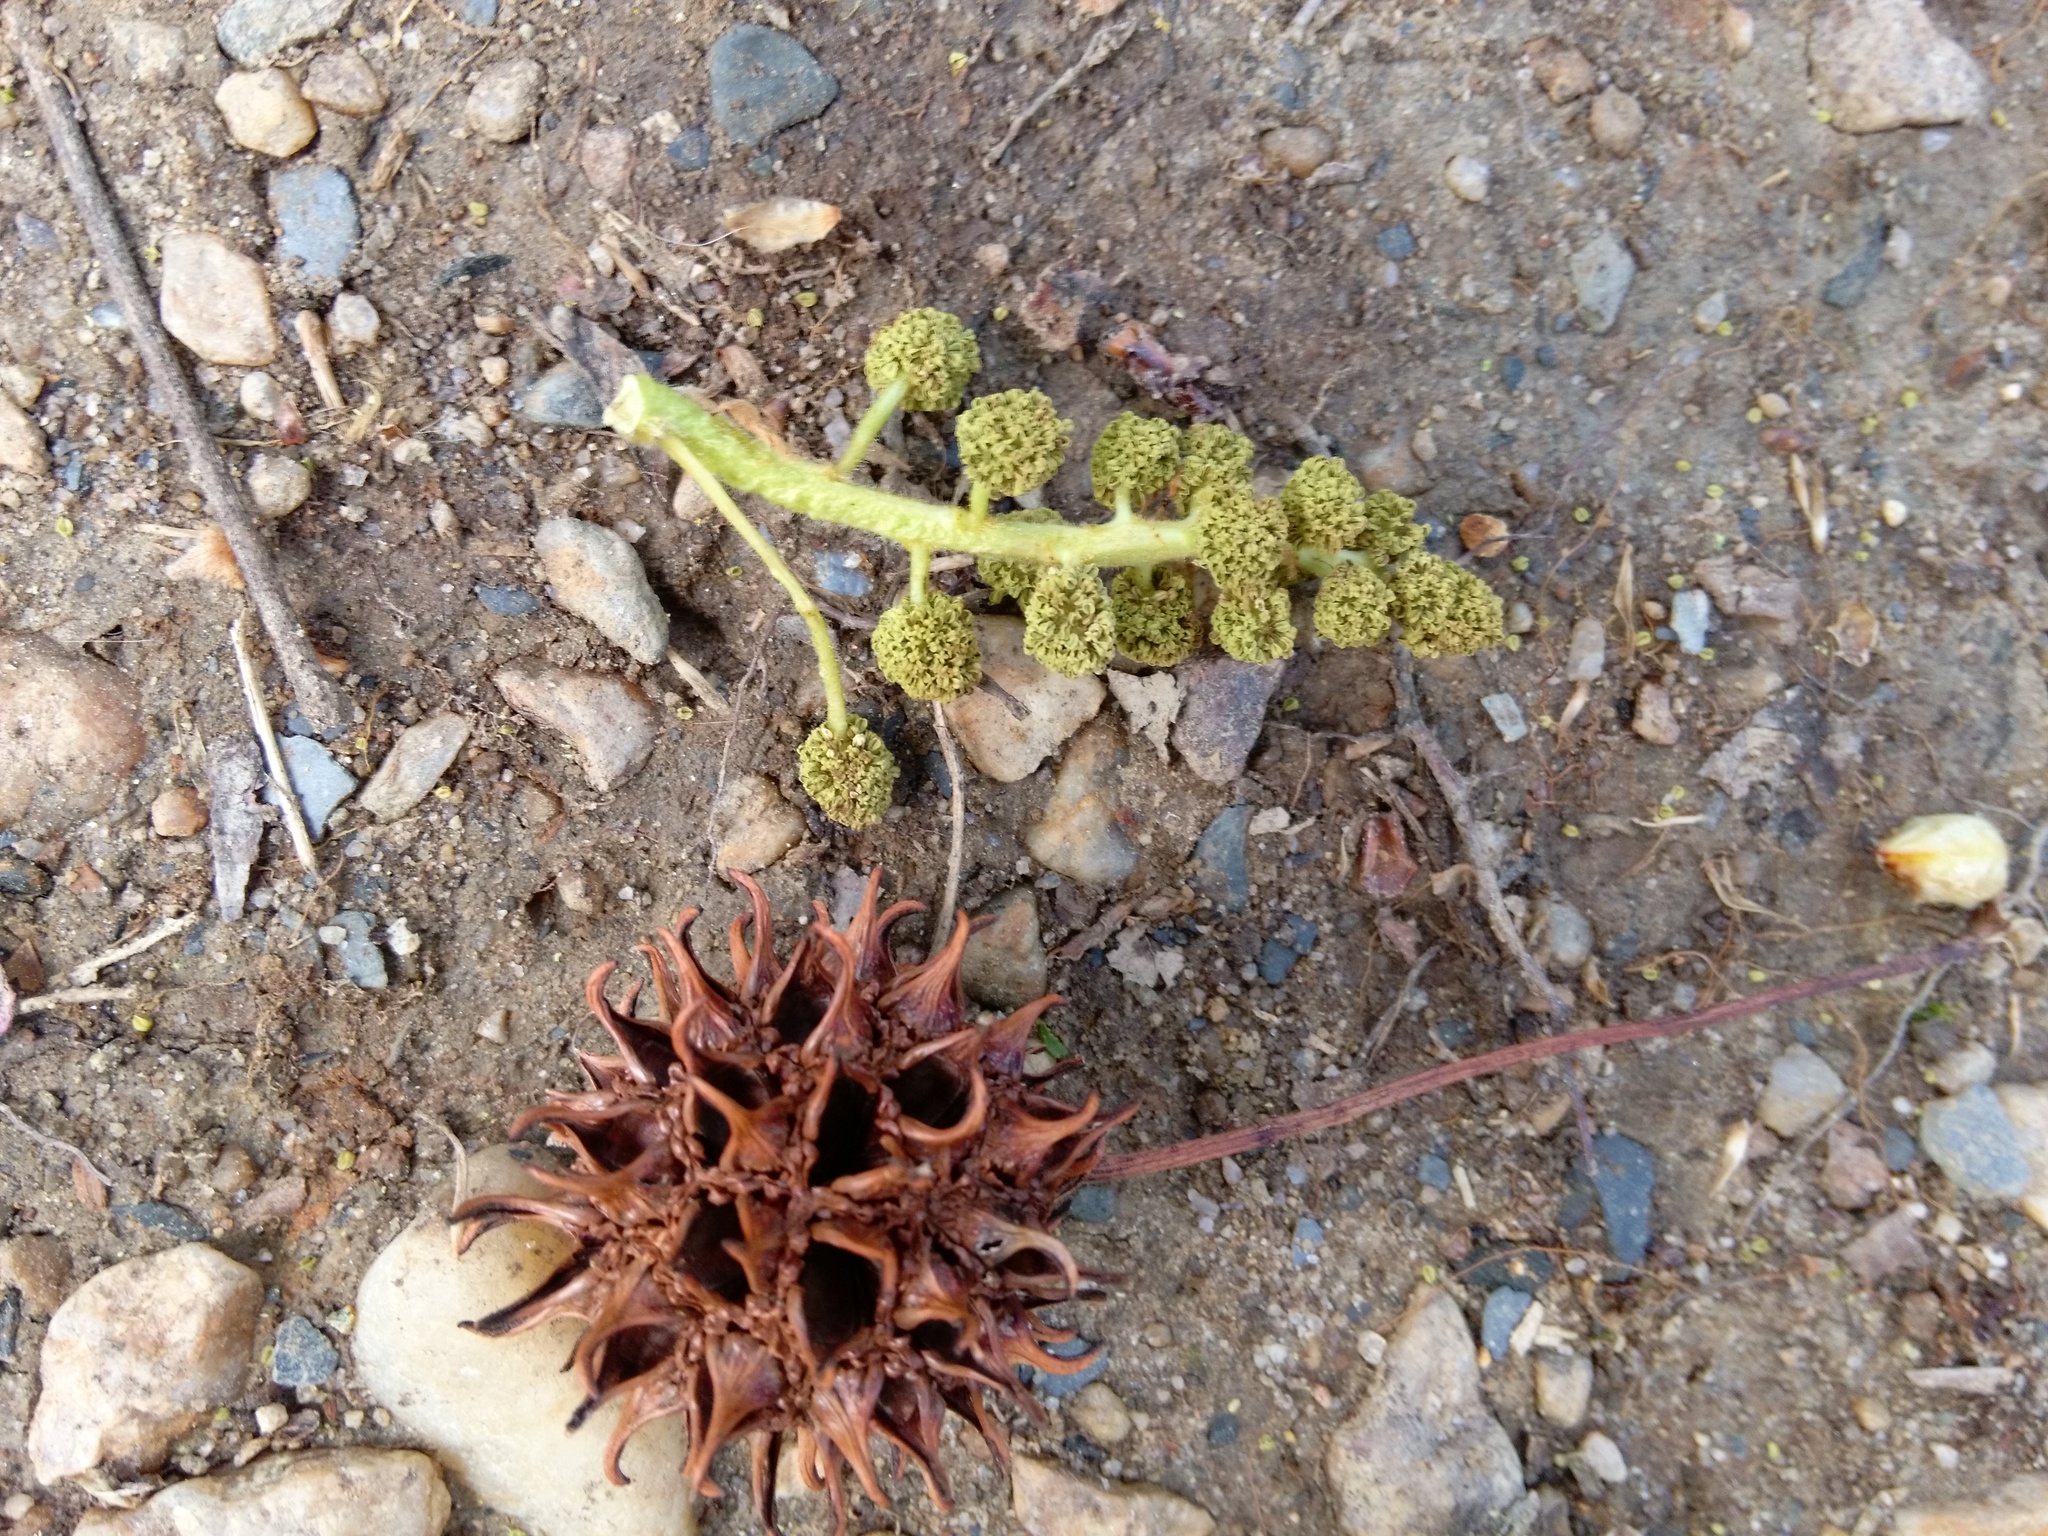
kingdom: Plantae
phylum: Tracheophyta
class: Magnoliopsida
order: Saxifragales
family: Altingiaceae
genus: Liquidambar
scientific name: Liquidambar styraciflua
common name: Sweet gum
